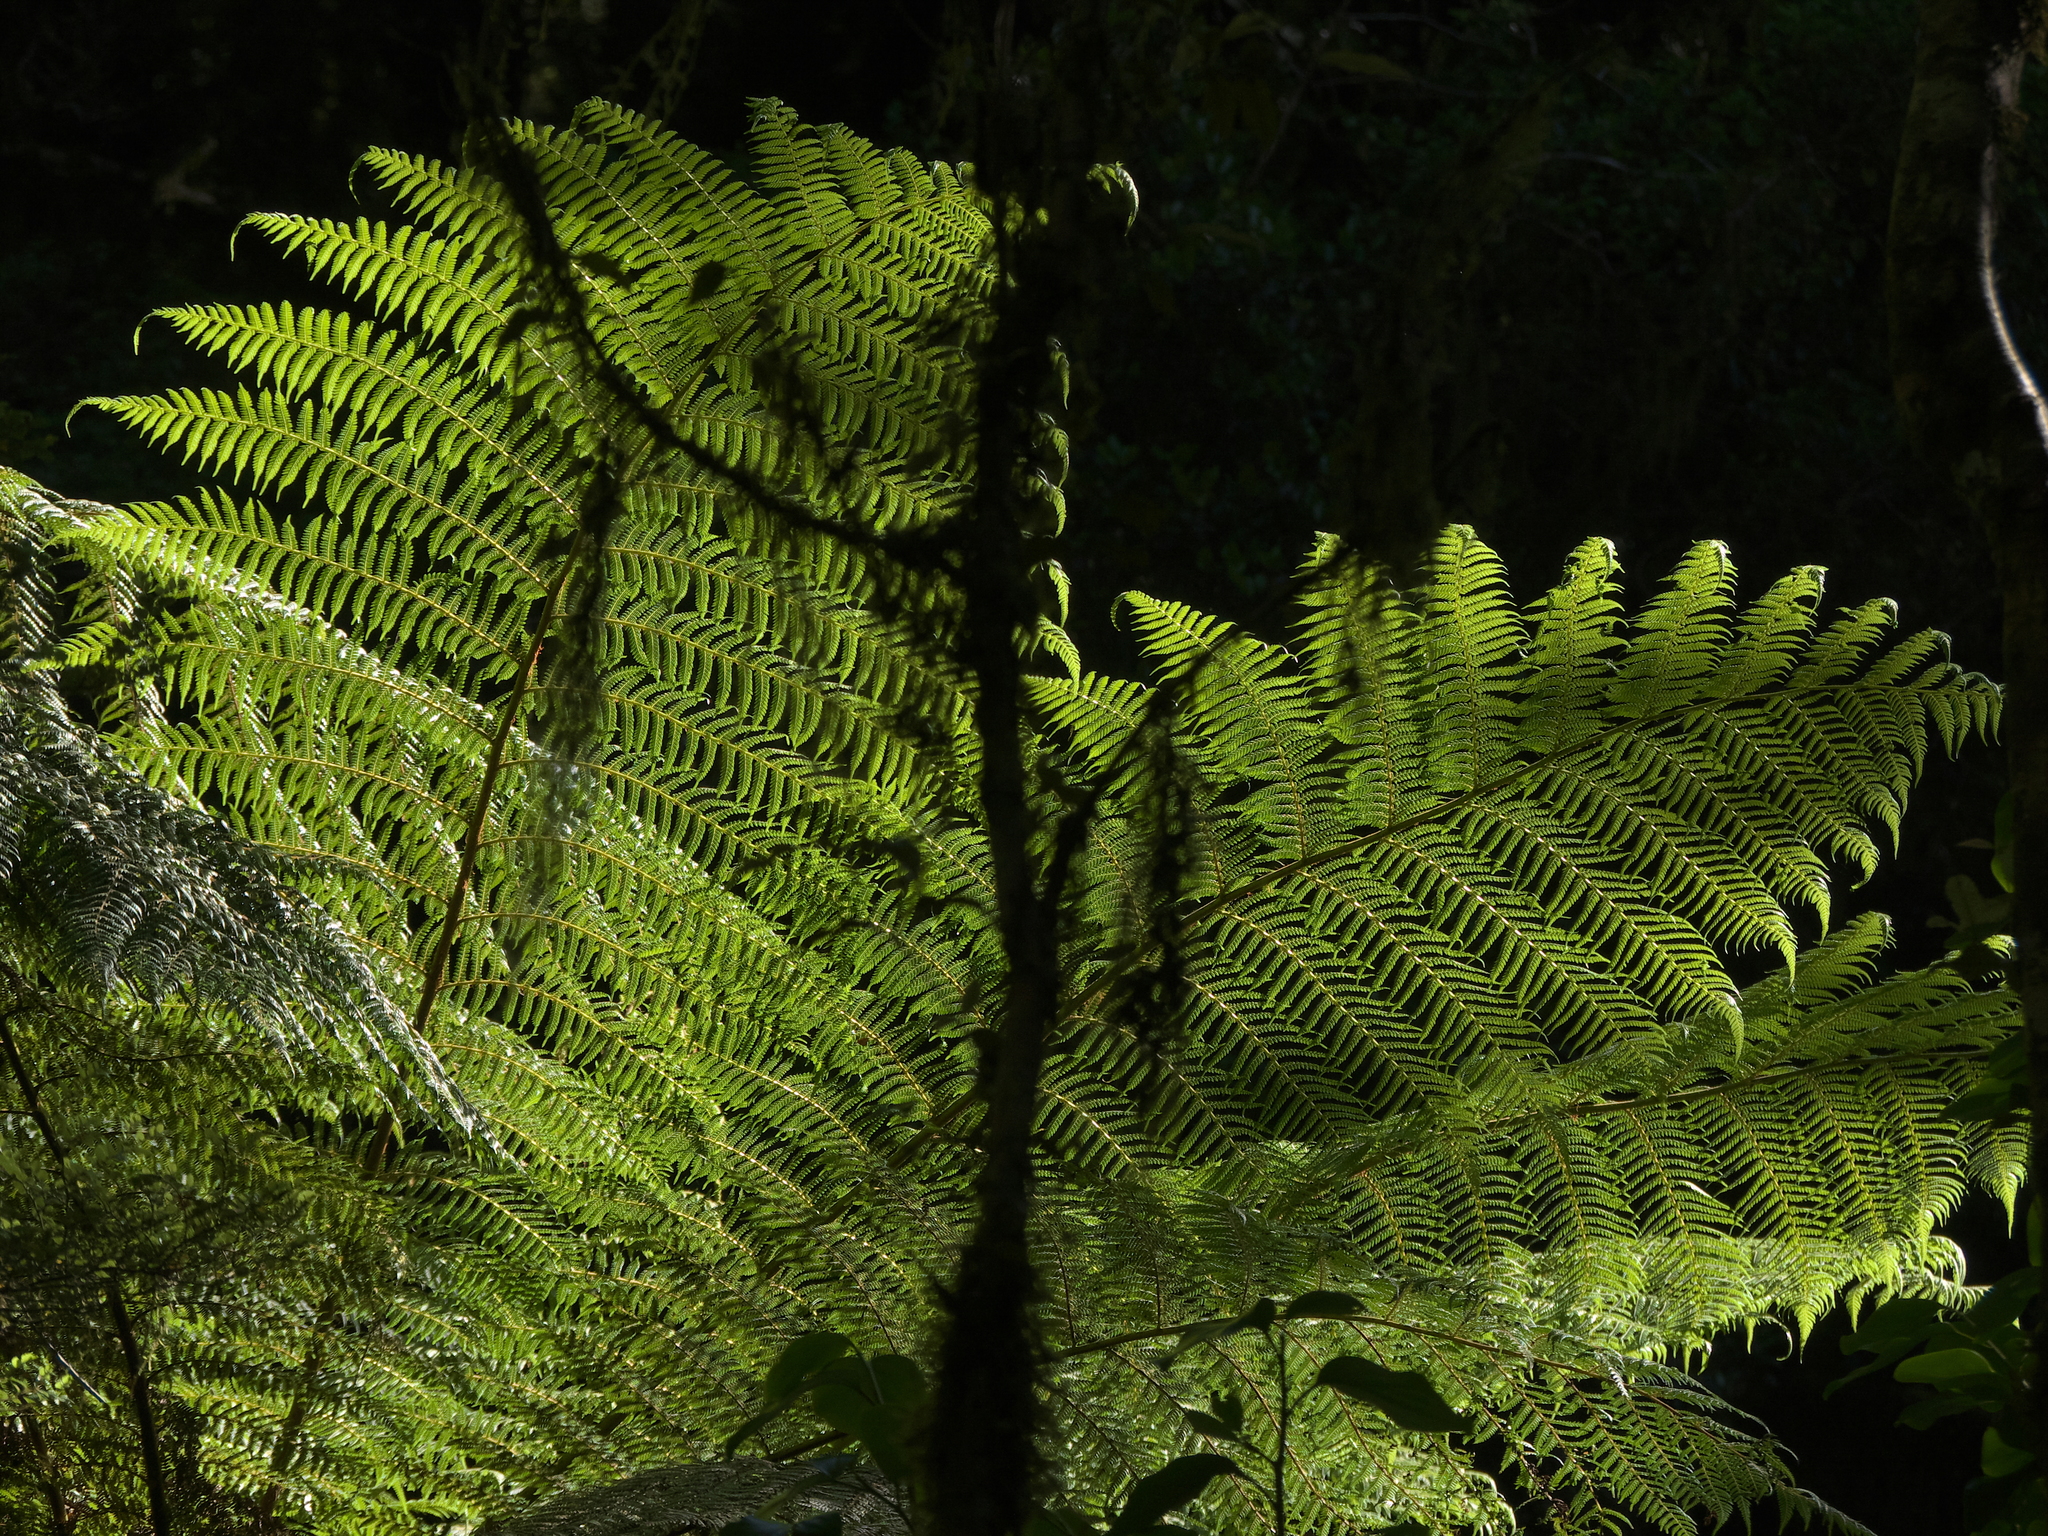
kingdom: Plantae
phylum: Tracheophyta
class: Polypodiopsida
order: Cyatheales
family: Cyatheaceae
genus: Alsophila
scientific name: Alsophila smithii
